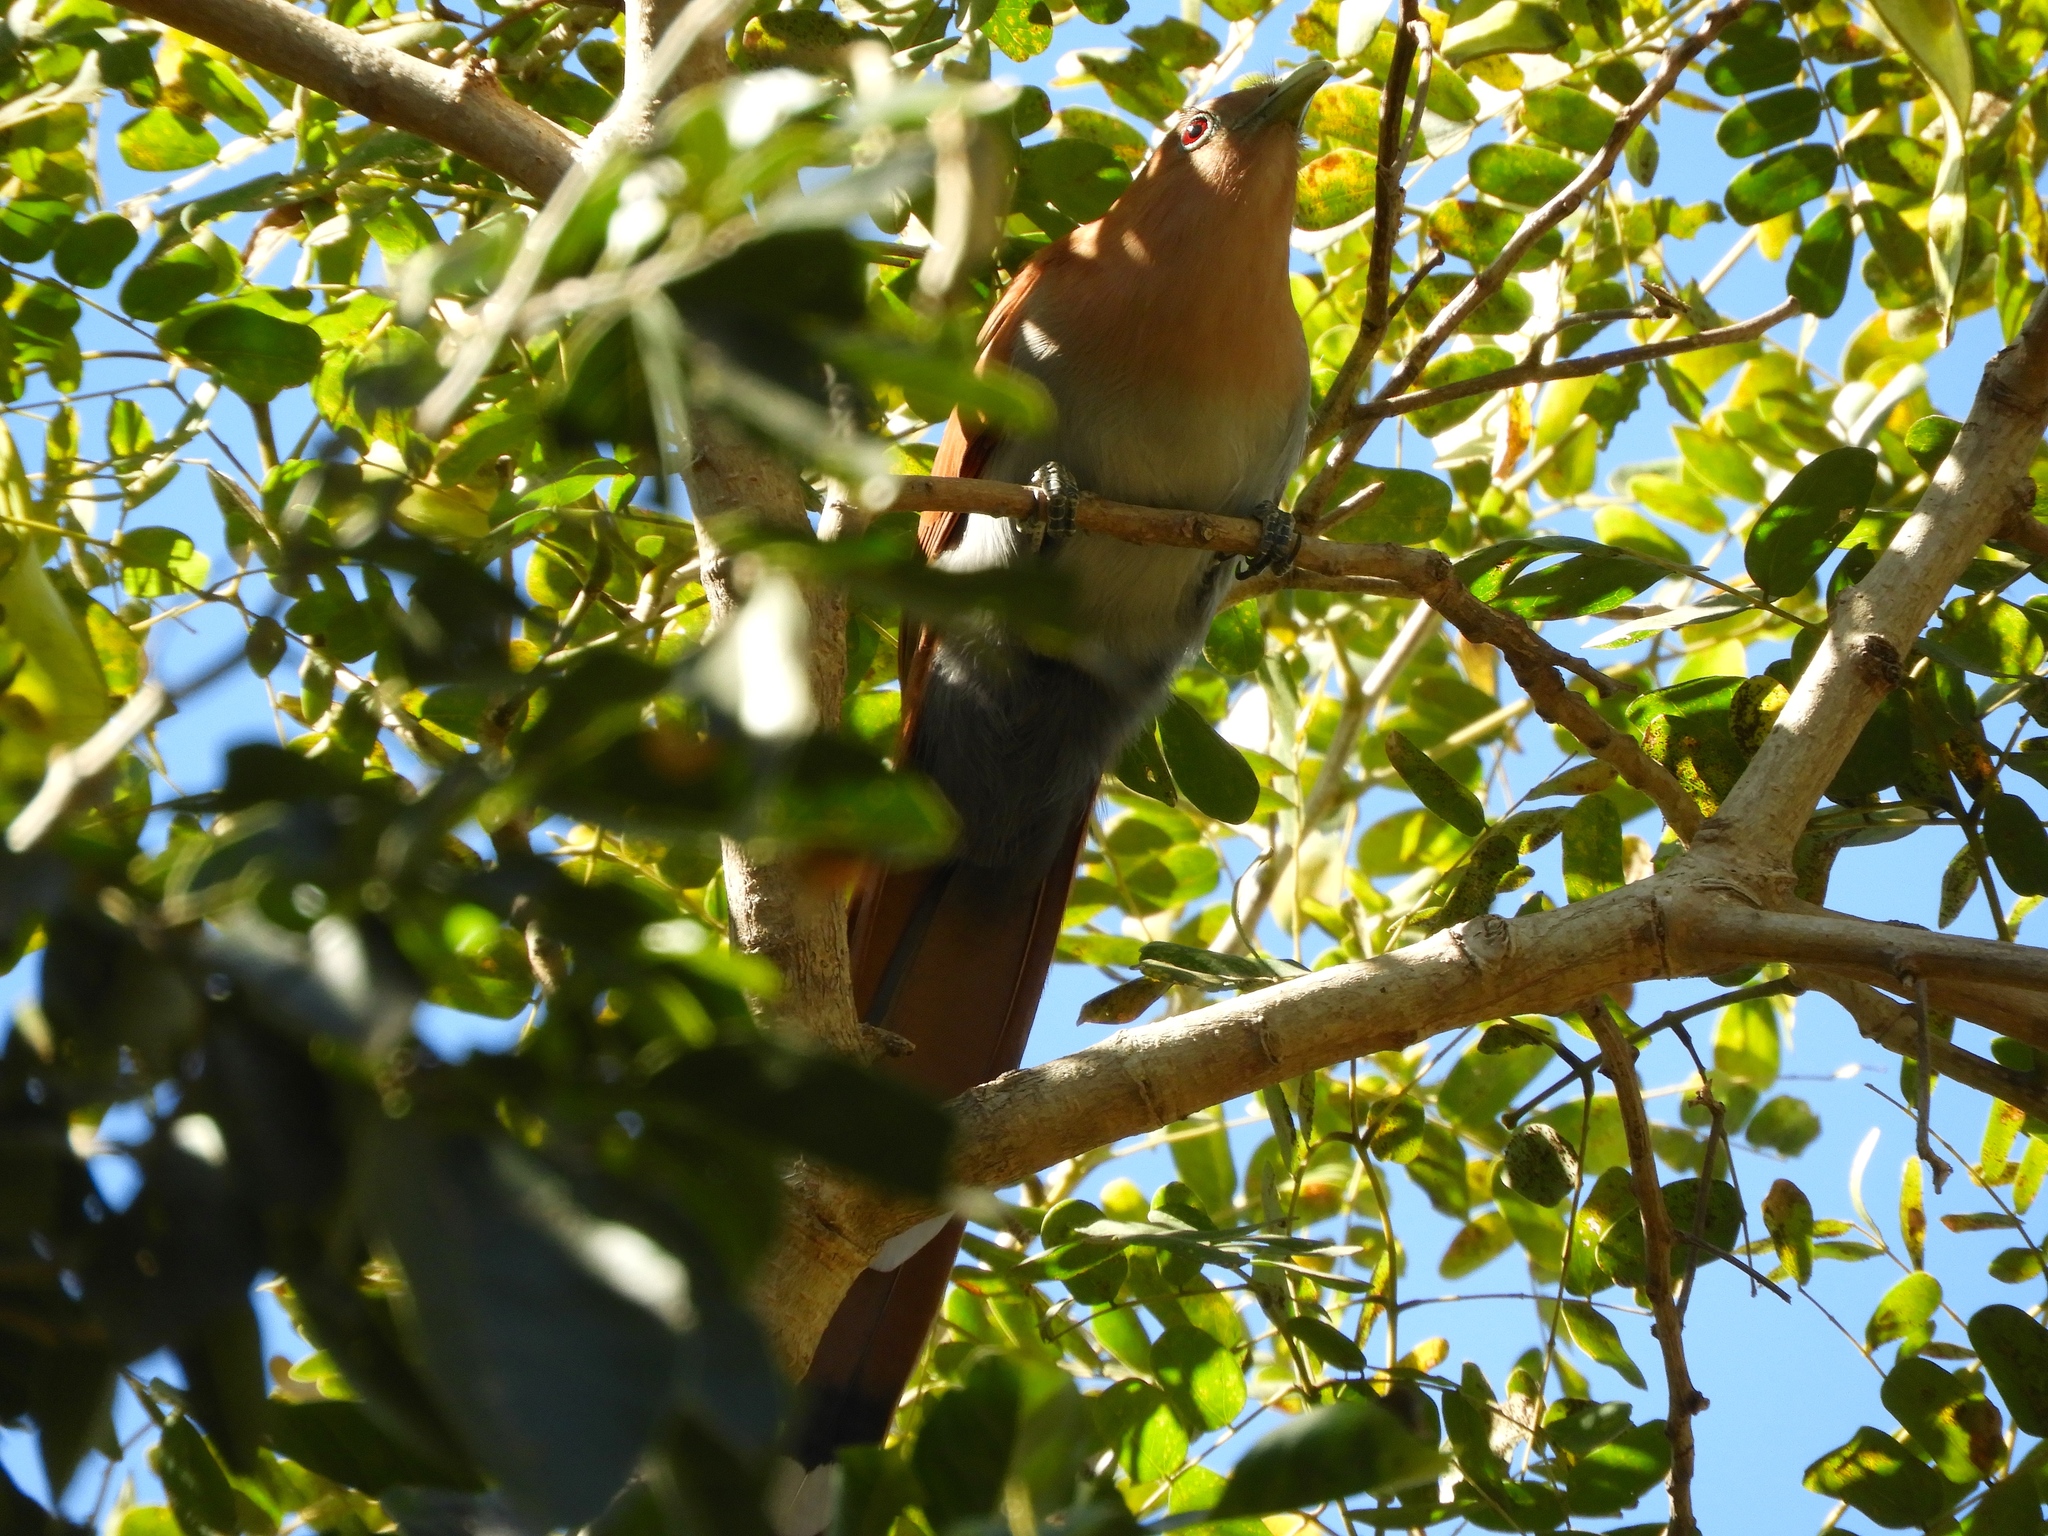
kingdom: Animalia
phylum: Chordata
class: Aves
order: Cuculiformes
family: Cuculidae
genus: Piaya
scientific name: Piaya cayana
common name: Squirrel cuckoo
